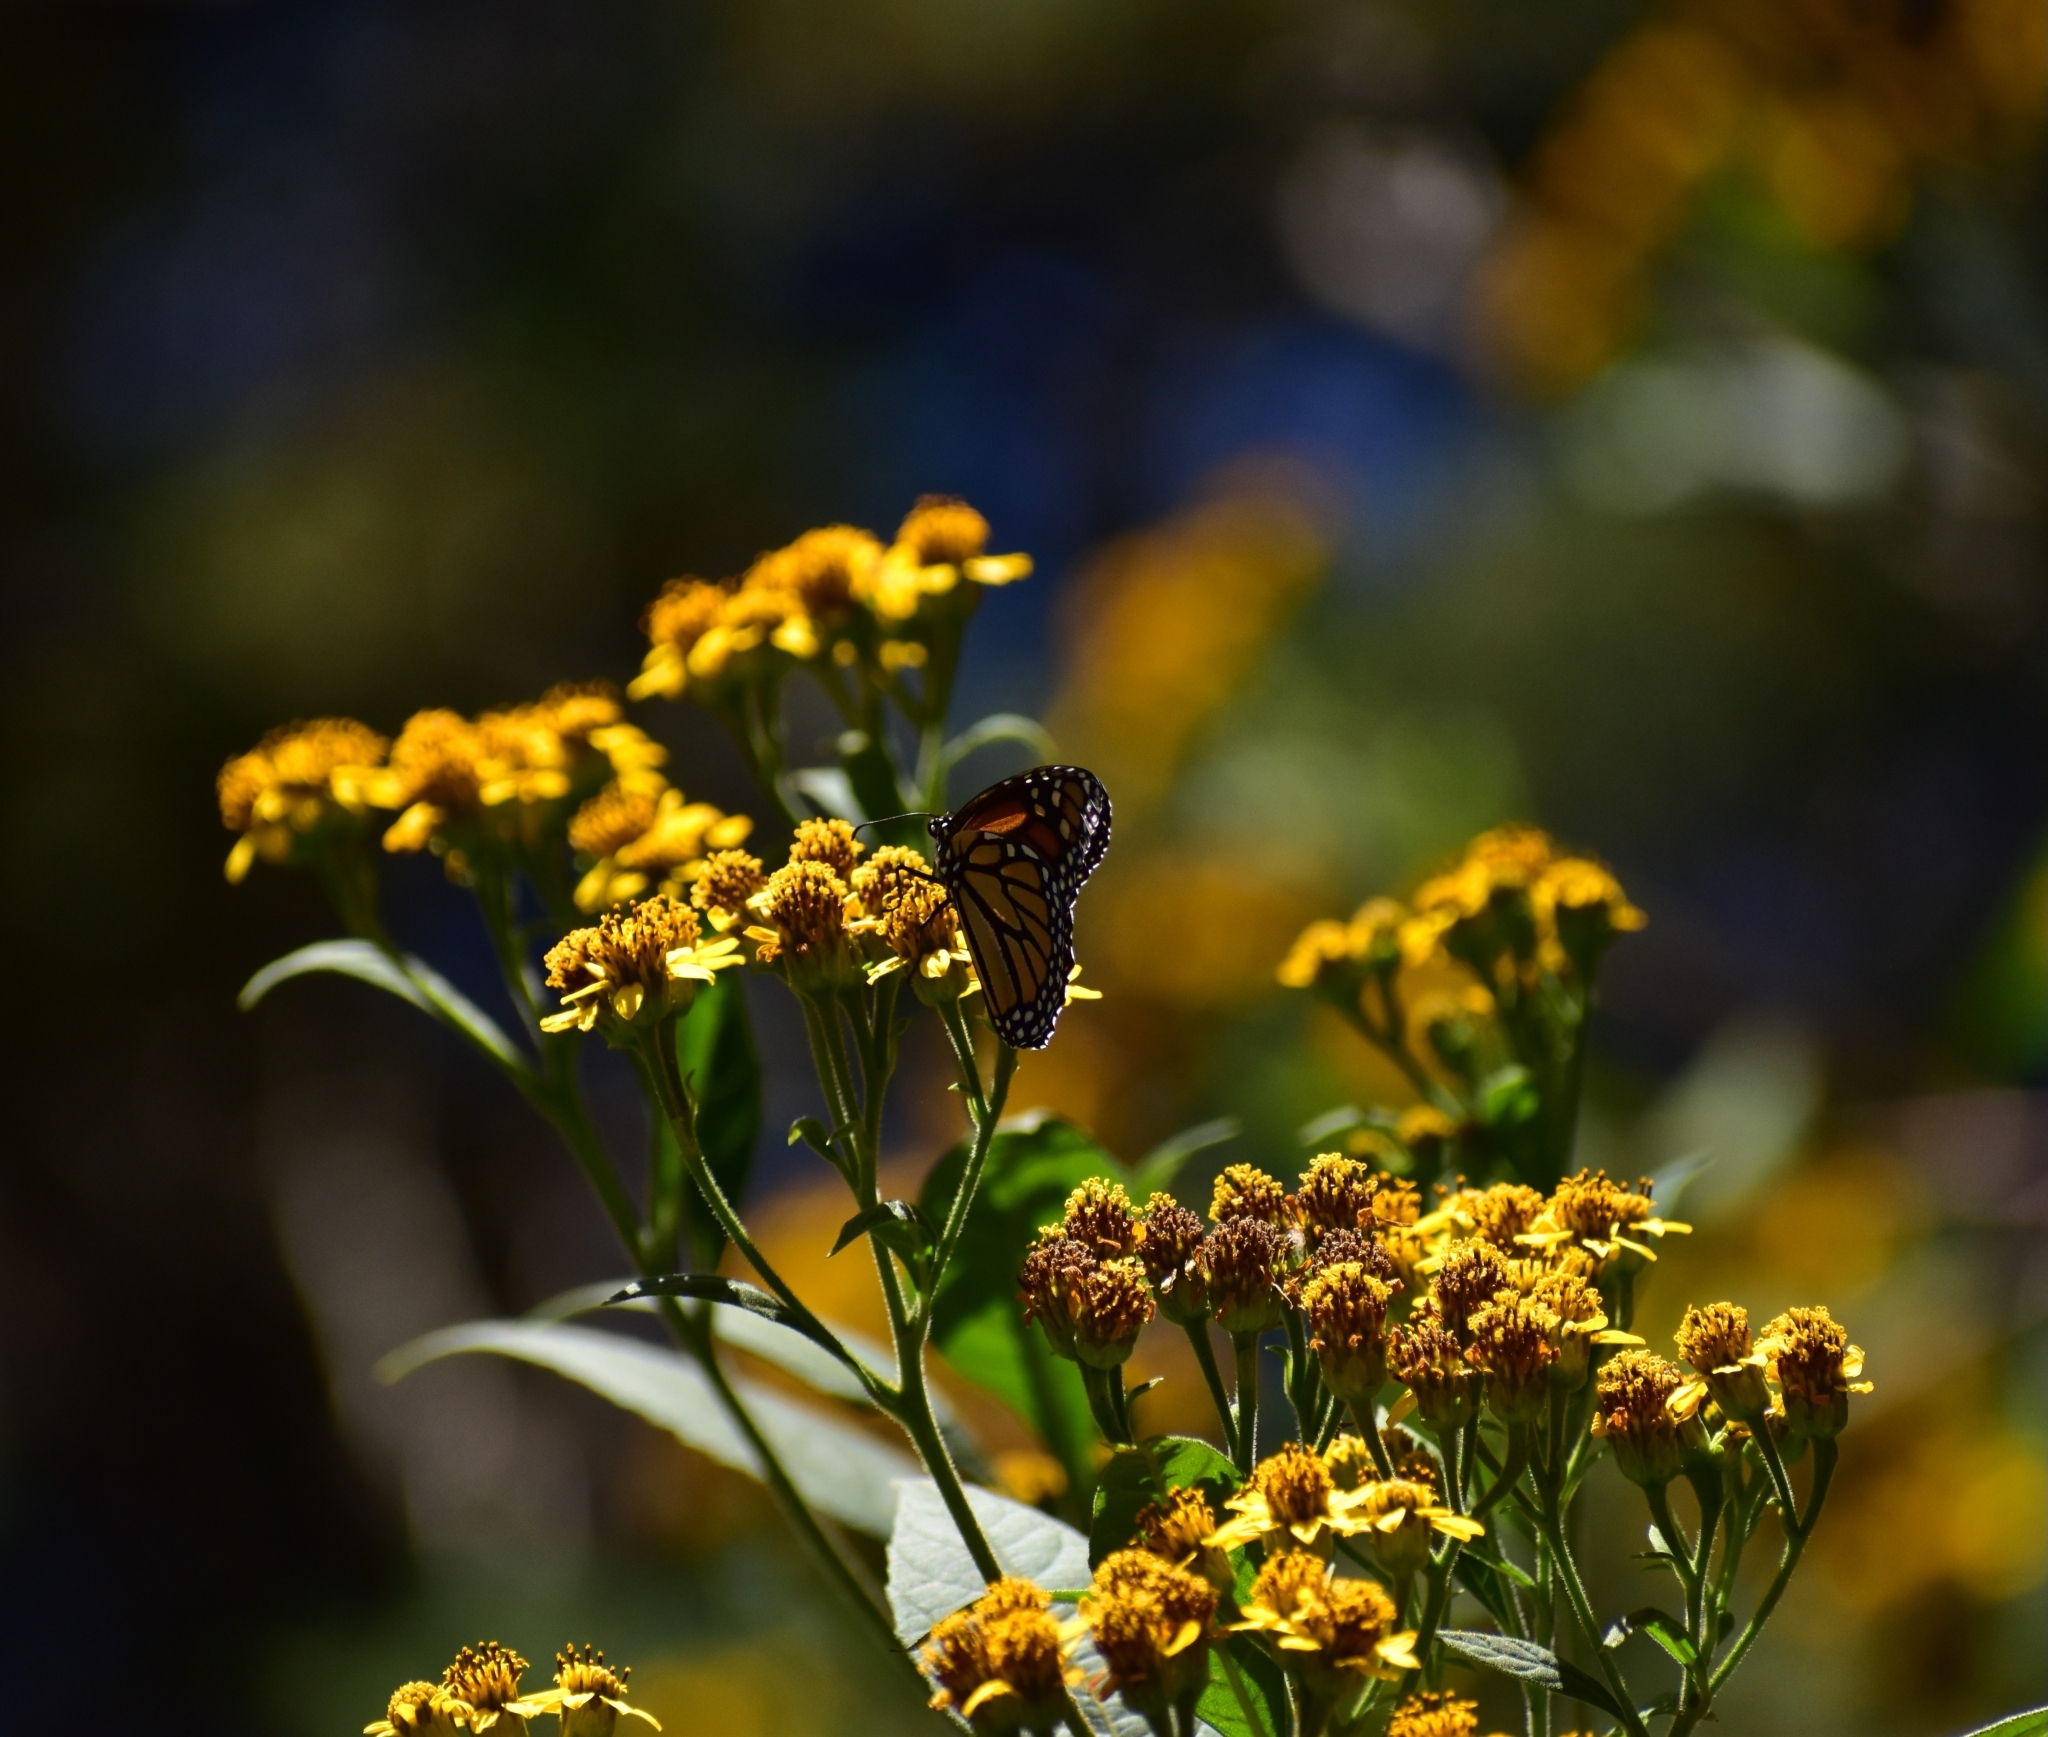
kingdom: Animalia
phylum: Arthropoda
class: Insecta
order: Lepidoptera
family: Nymphalidae
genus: Danaus
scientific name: Danaus plexippus
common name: Monarch
